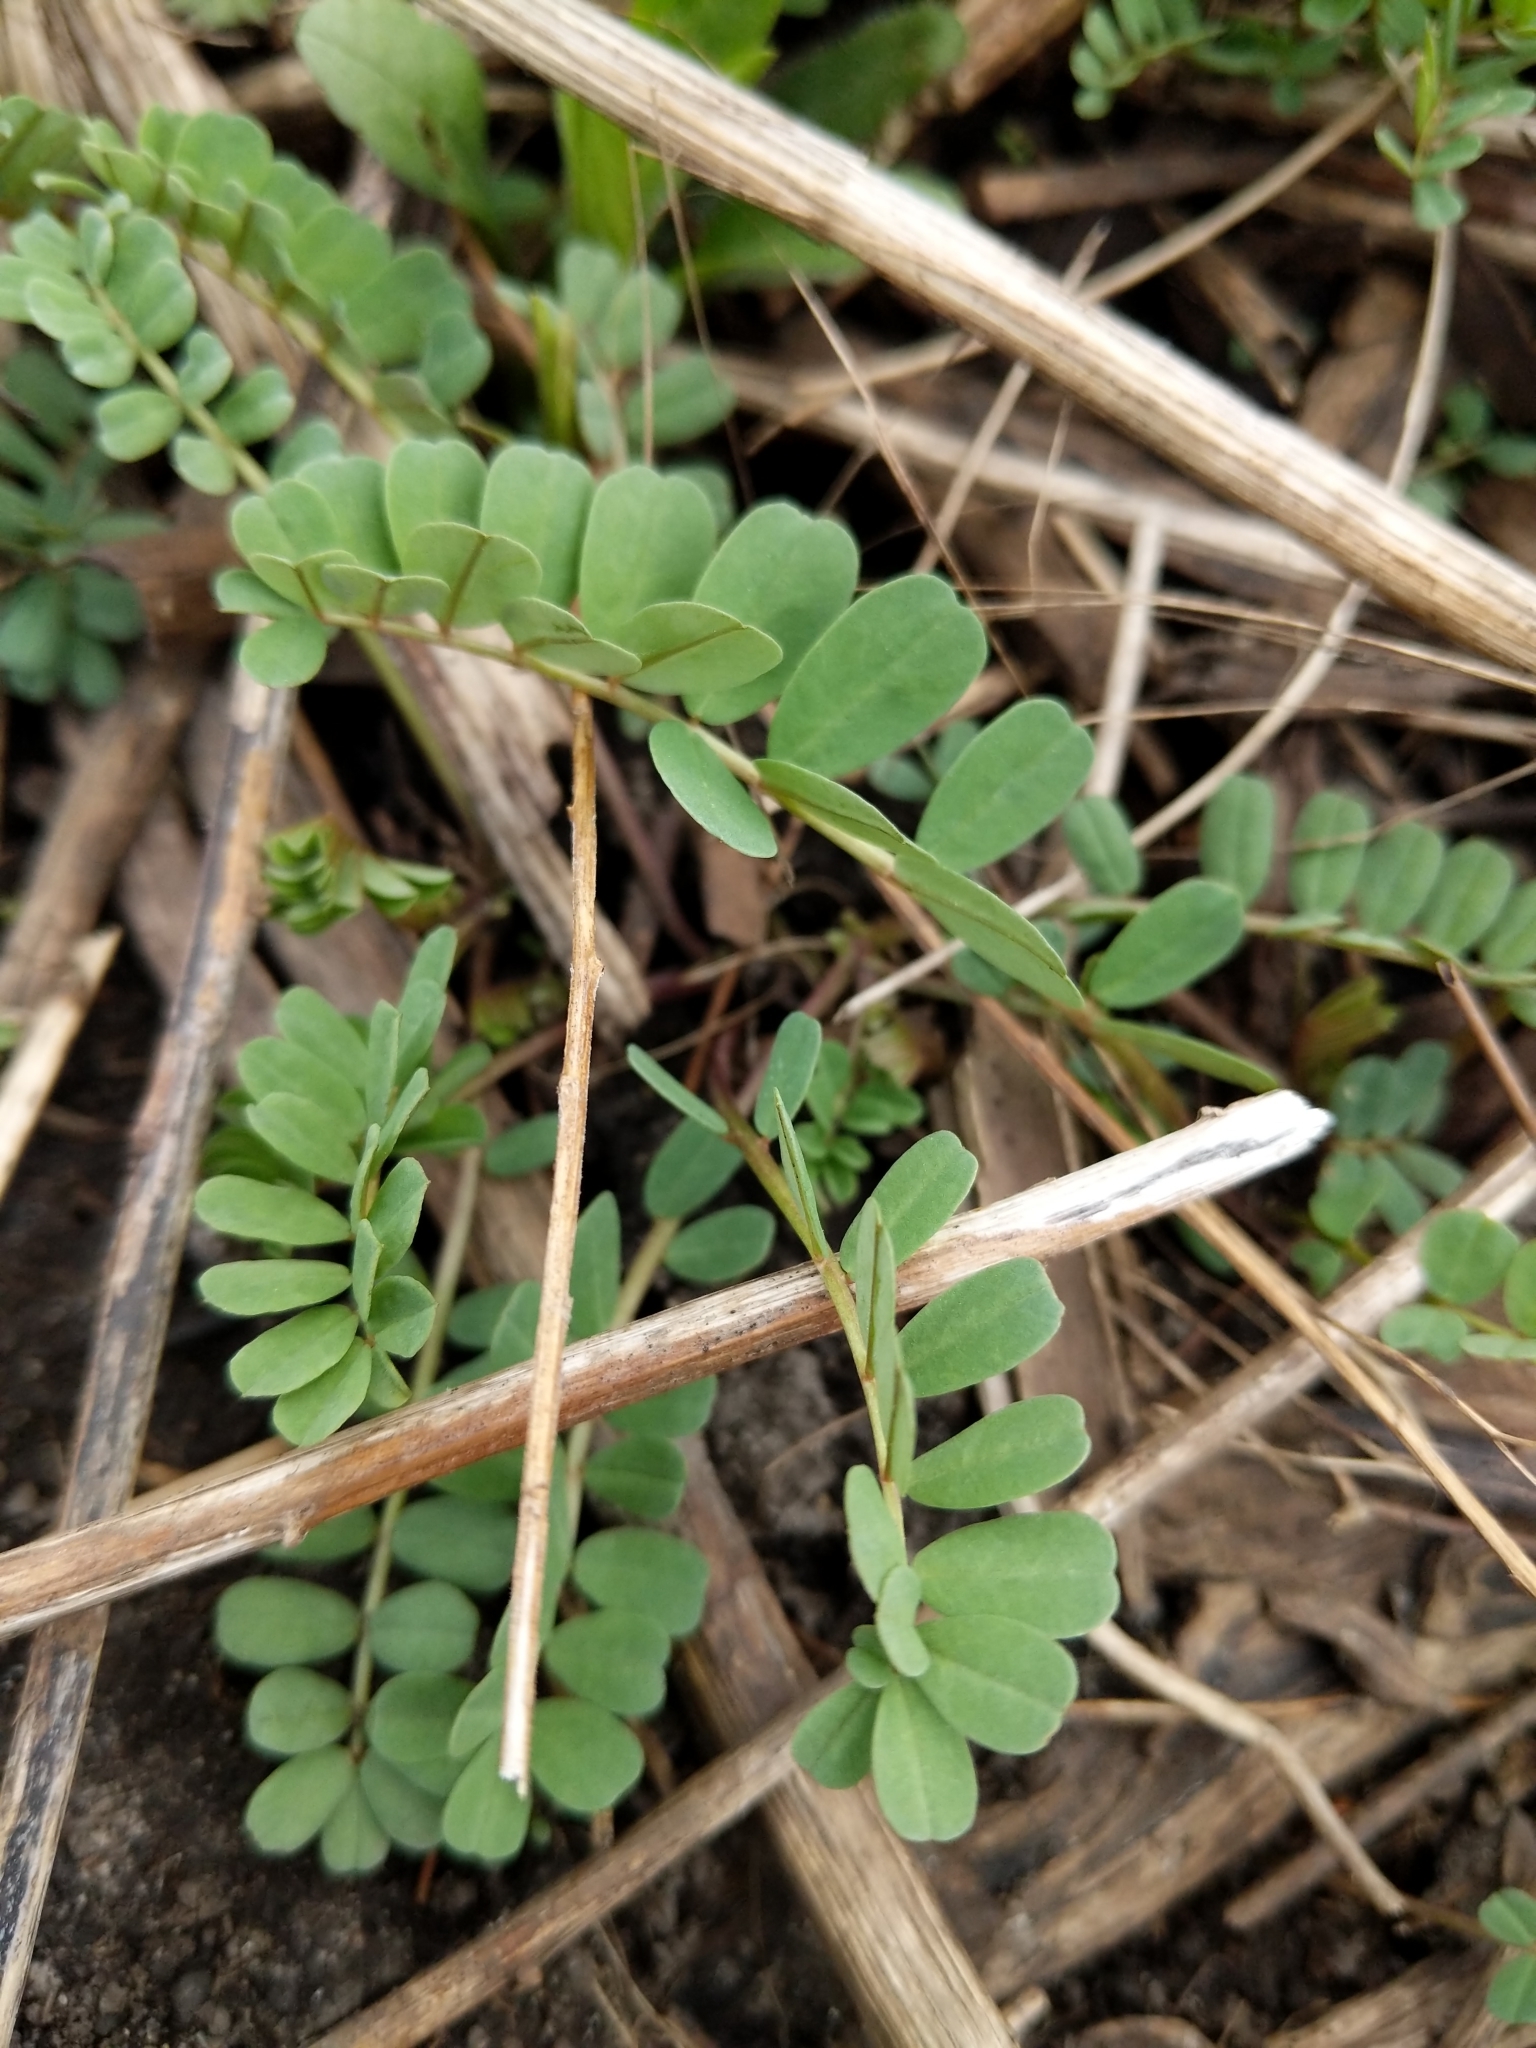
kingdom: Plantae
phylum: Tracheophyta
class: Magnoliopsida
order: Fabales
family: Fabaceae
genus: Coronilla
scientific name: Coronilla varia
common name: Crownvetch
